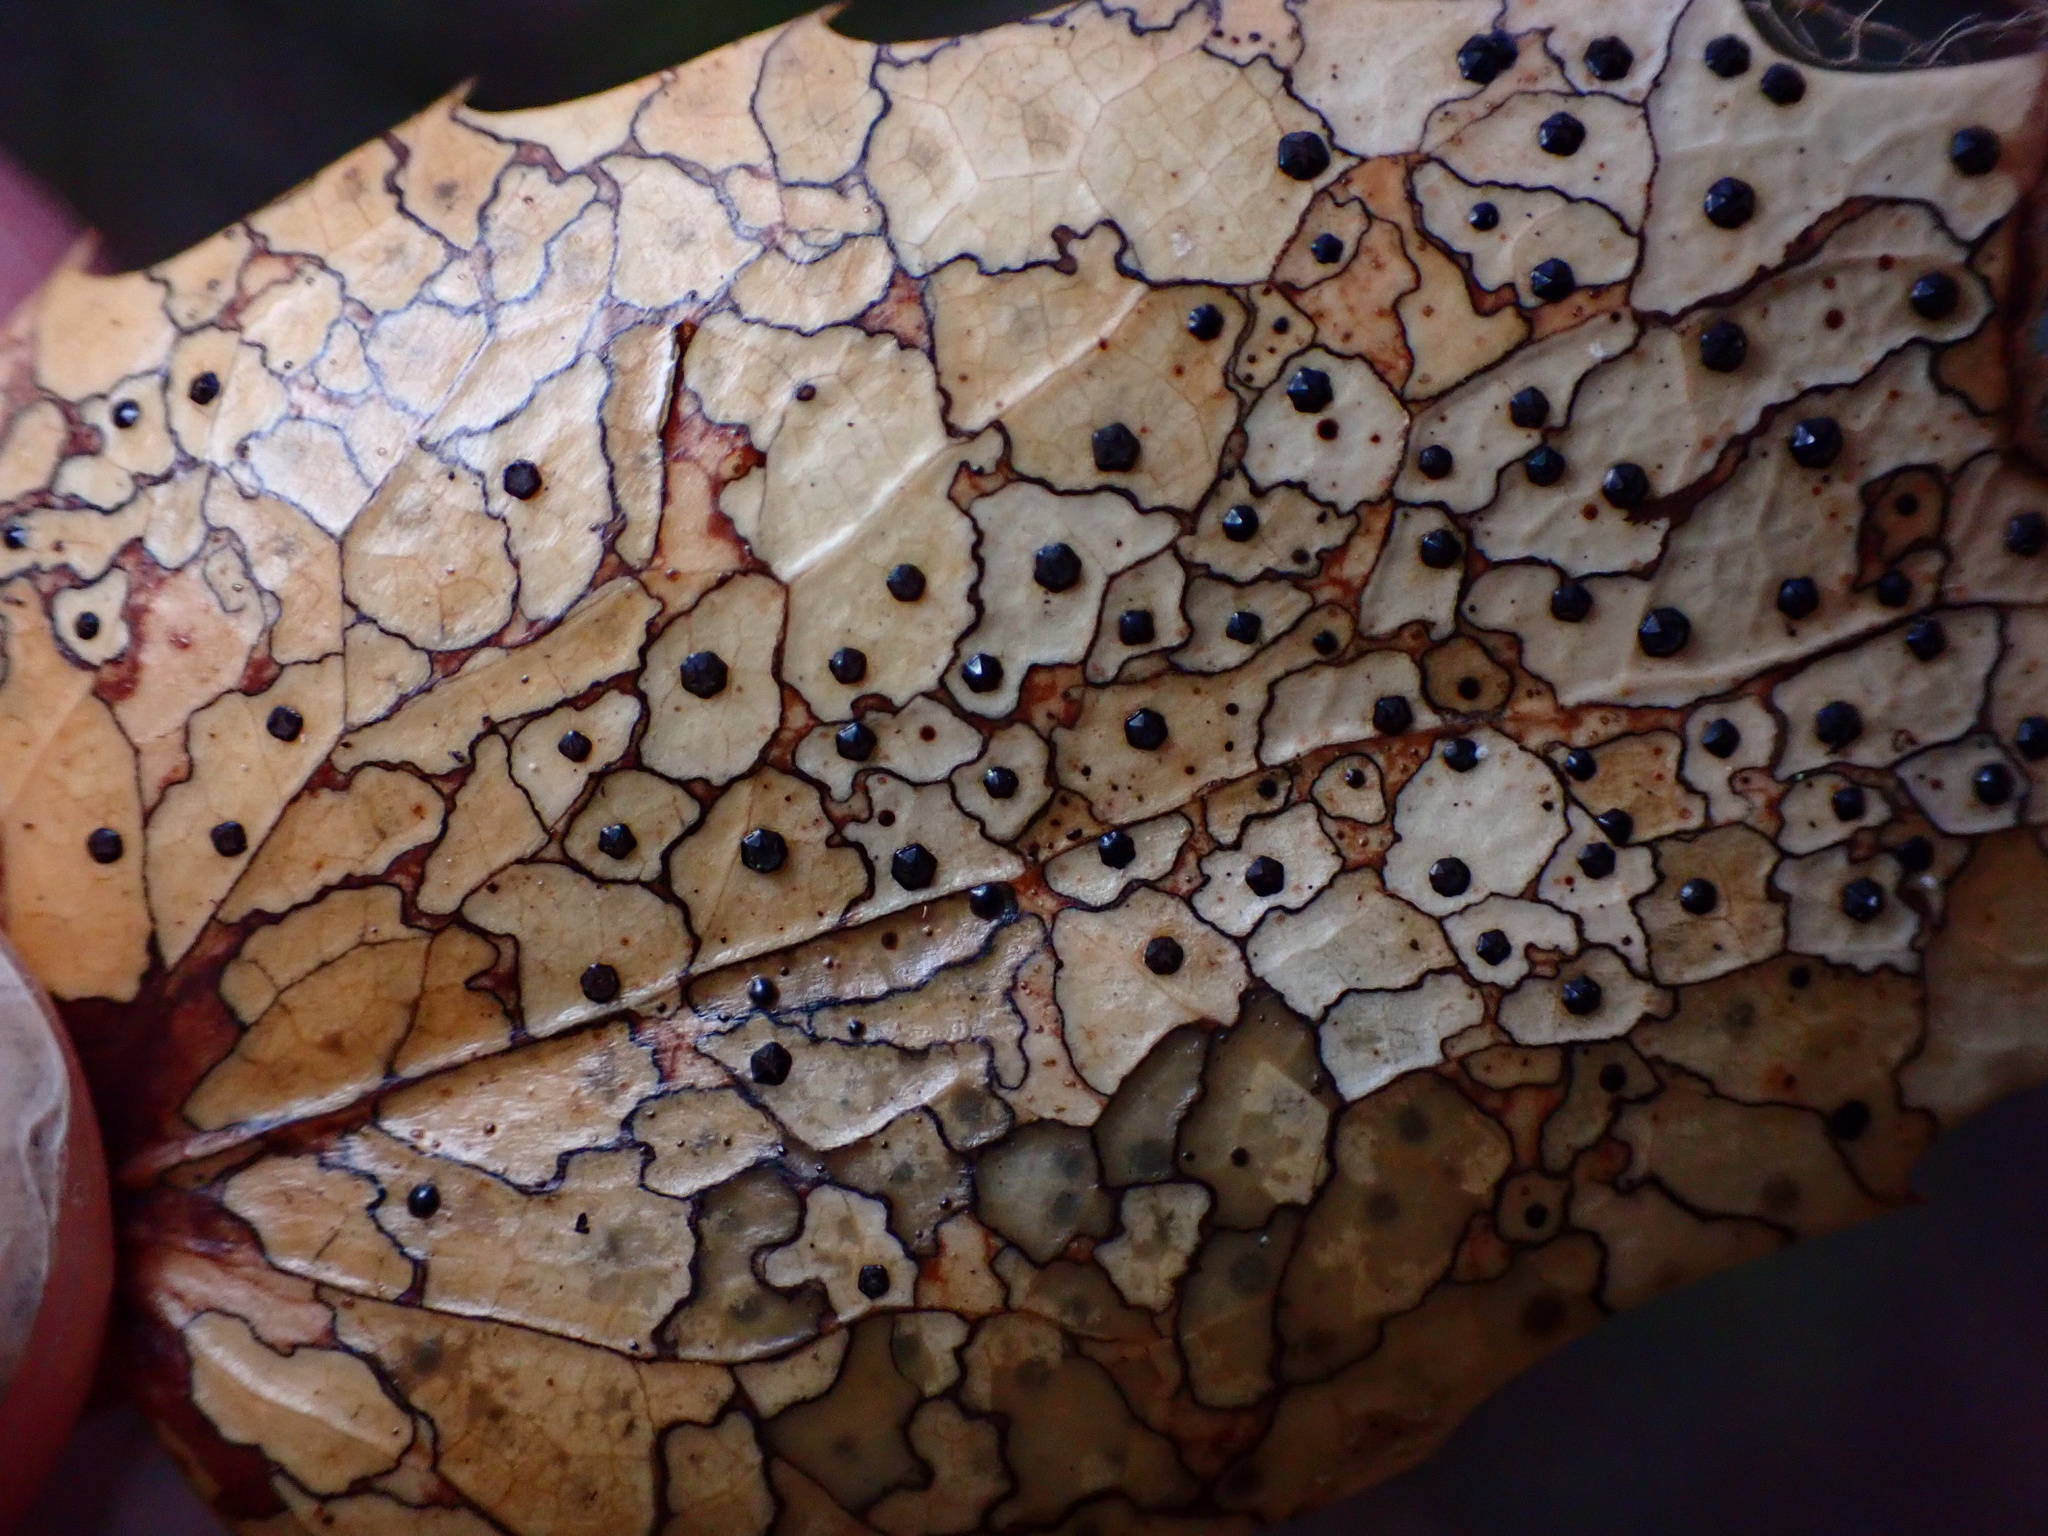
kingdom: Fungi
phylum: Ascomycota
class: Leotiomycetes
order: Rhytismatales
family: Rhytismataceae
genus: Coccomyces
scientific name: Coccomyces dentatus
